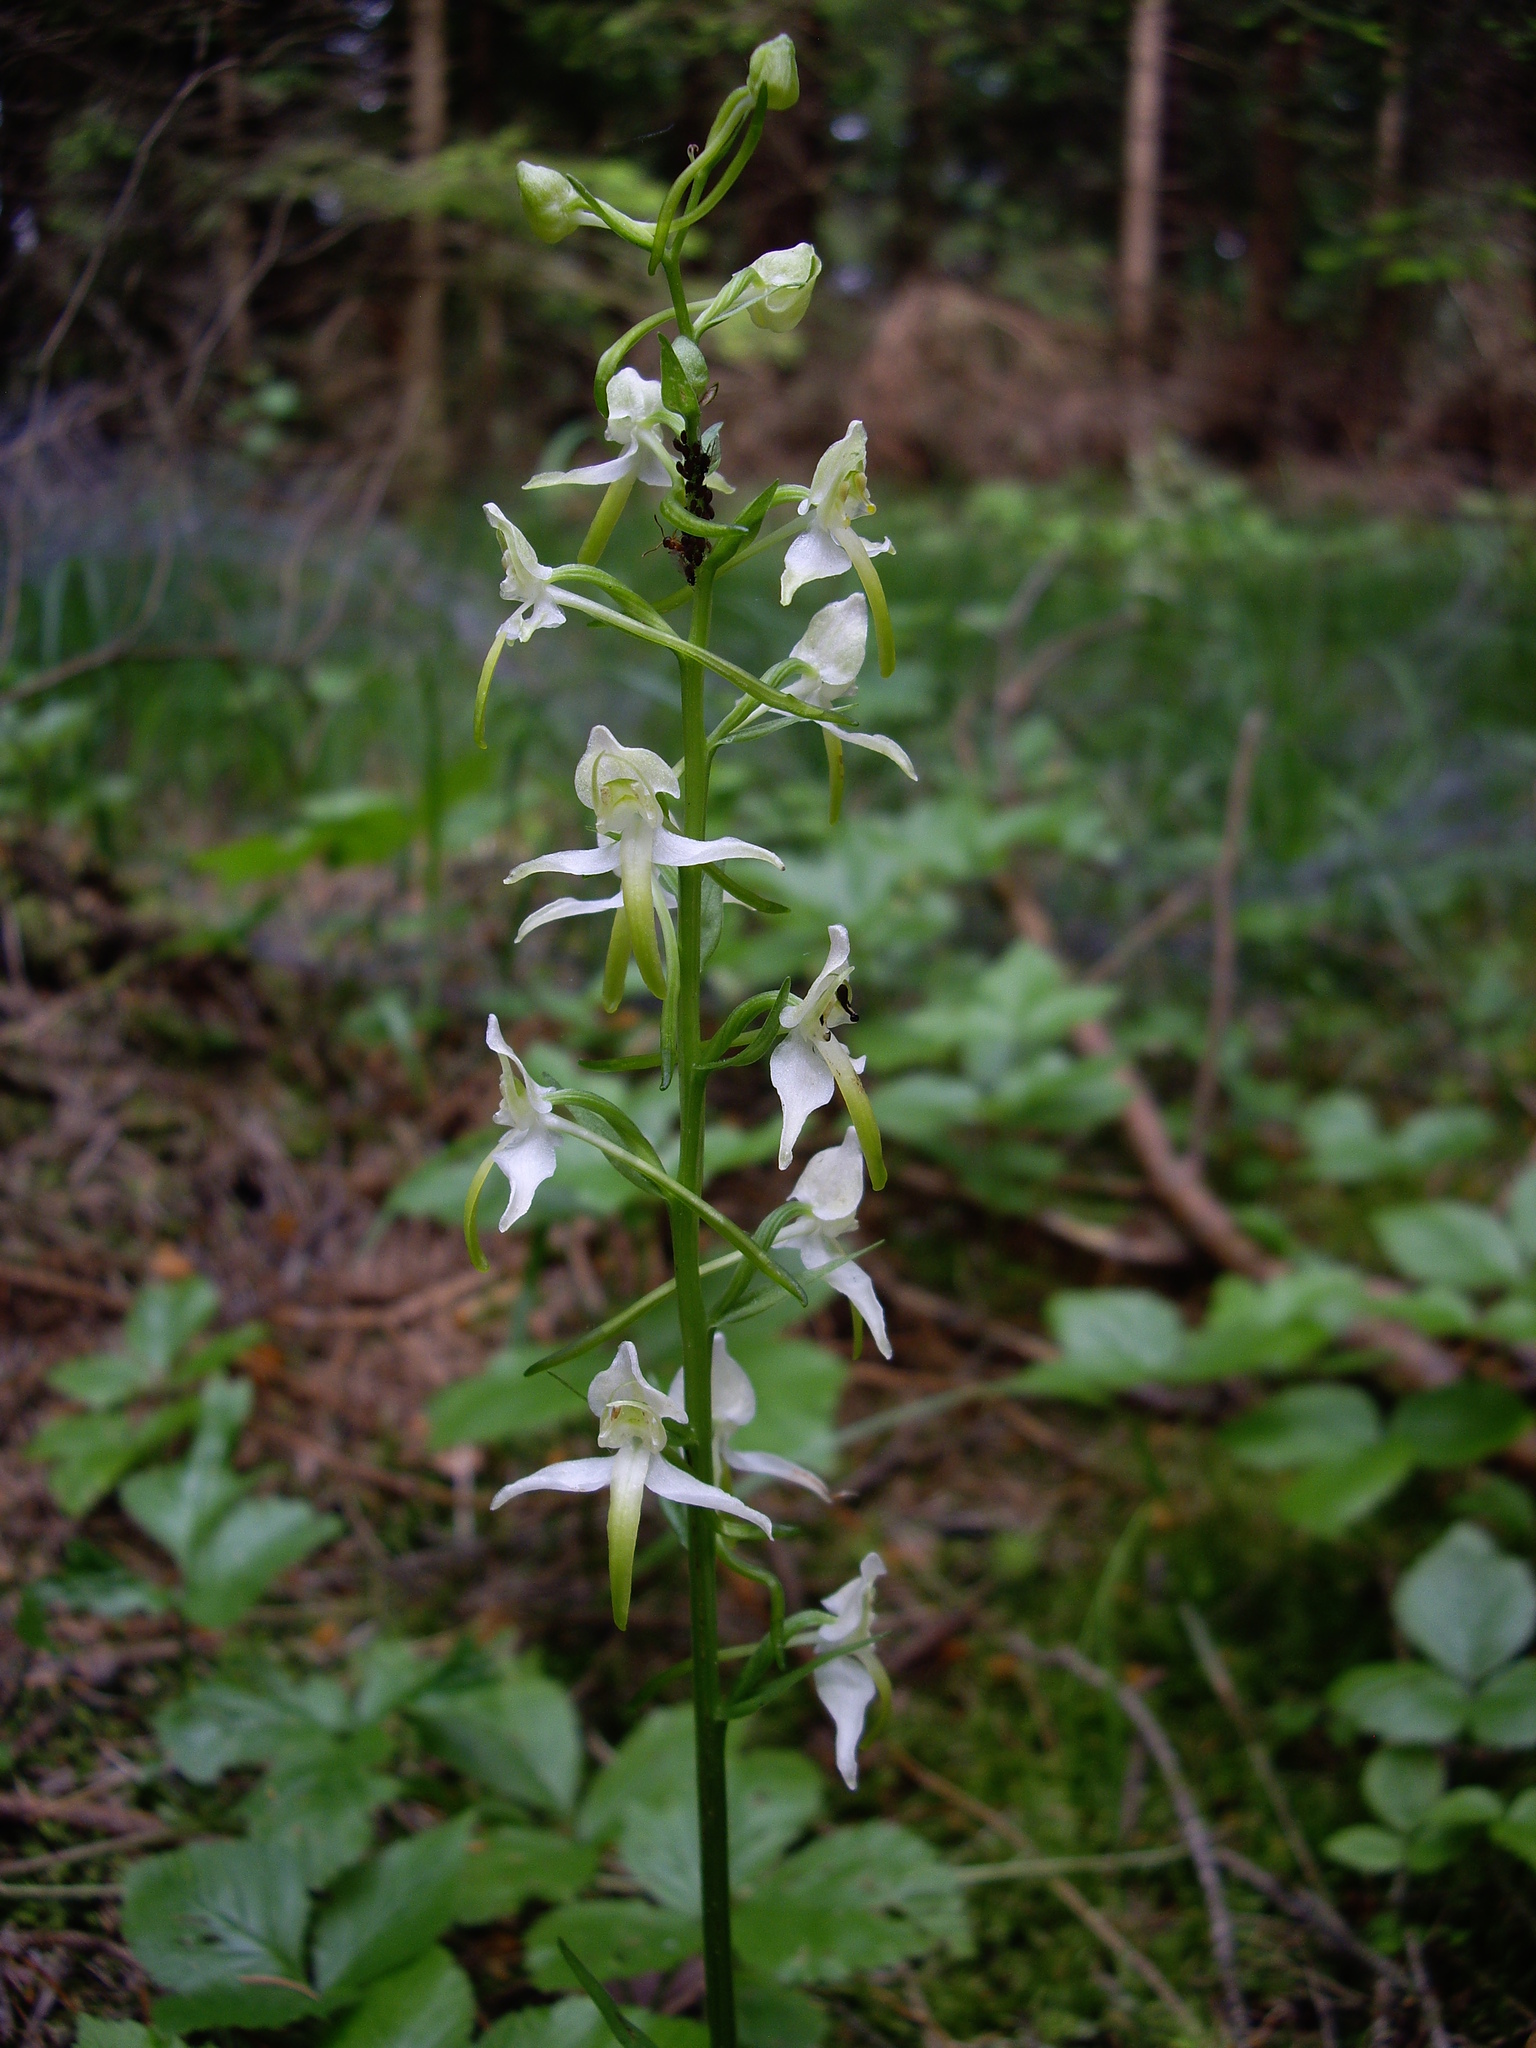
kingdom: Plantae
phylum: Tracheophyta
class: Liliopsida
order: Asparagales
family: Orchidaceae
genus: Platanthera
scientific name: Platanthera chlorantha
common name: Greater butterfly-orchid
